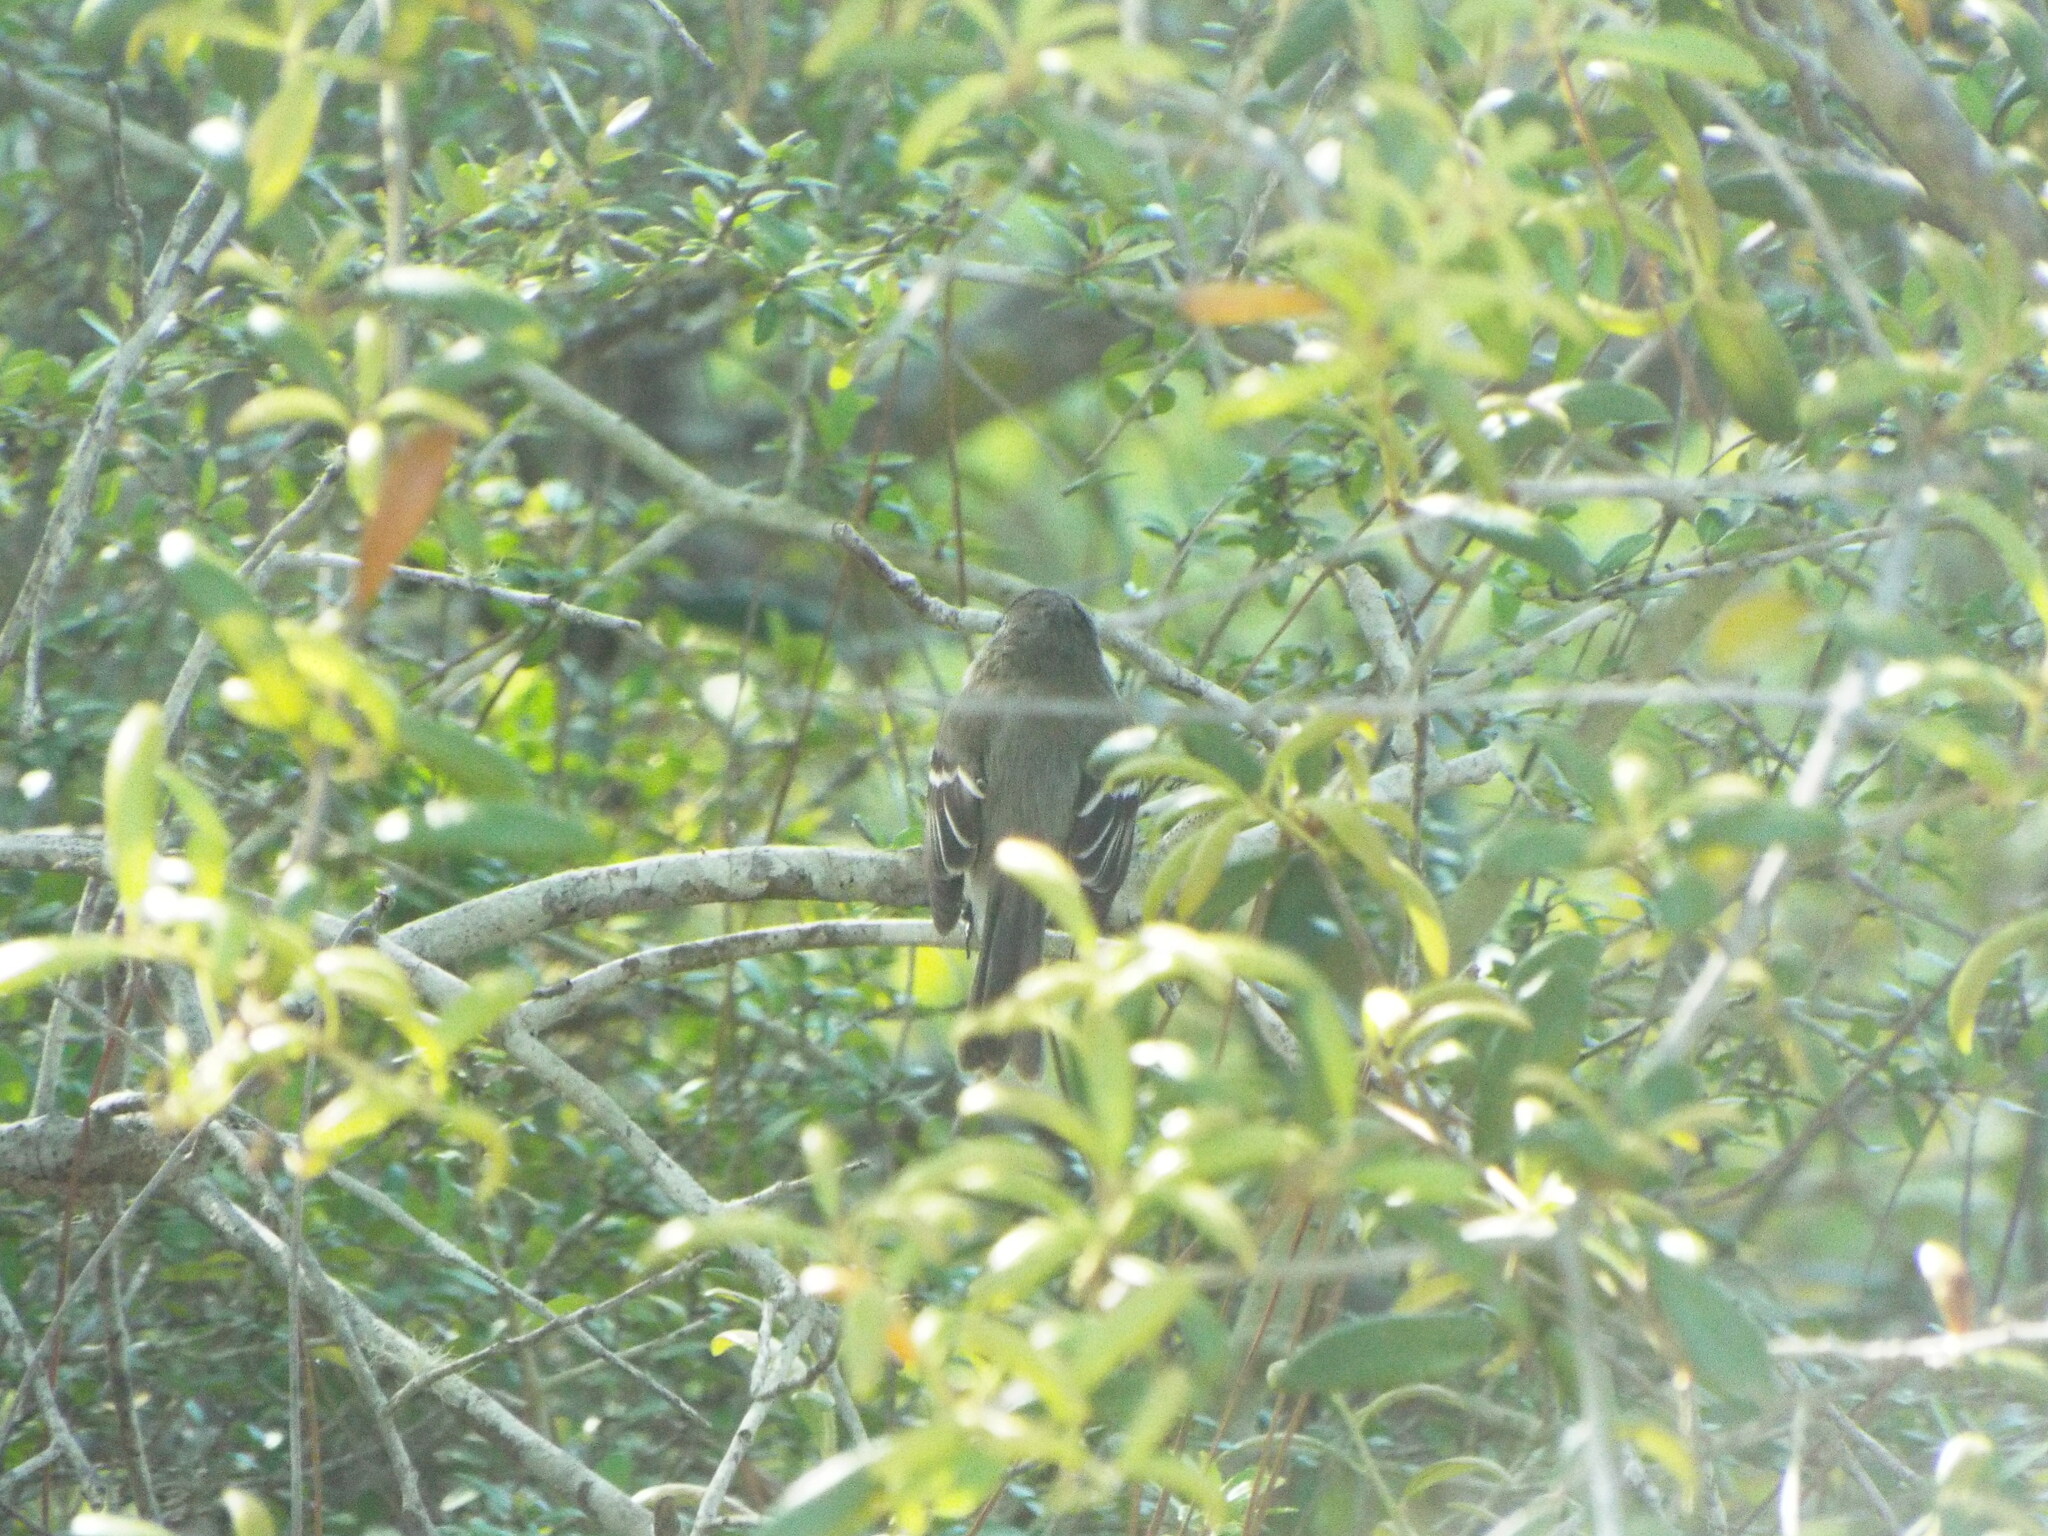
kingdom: Animalia
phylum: Chordata
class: Aves
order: Passeriformes
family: Tyrannidae
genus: Empidonax
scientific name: Empidonax virescens
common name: Acadian flycatcher
